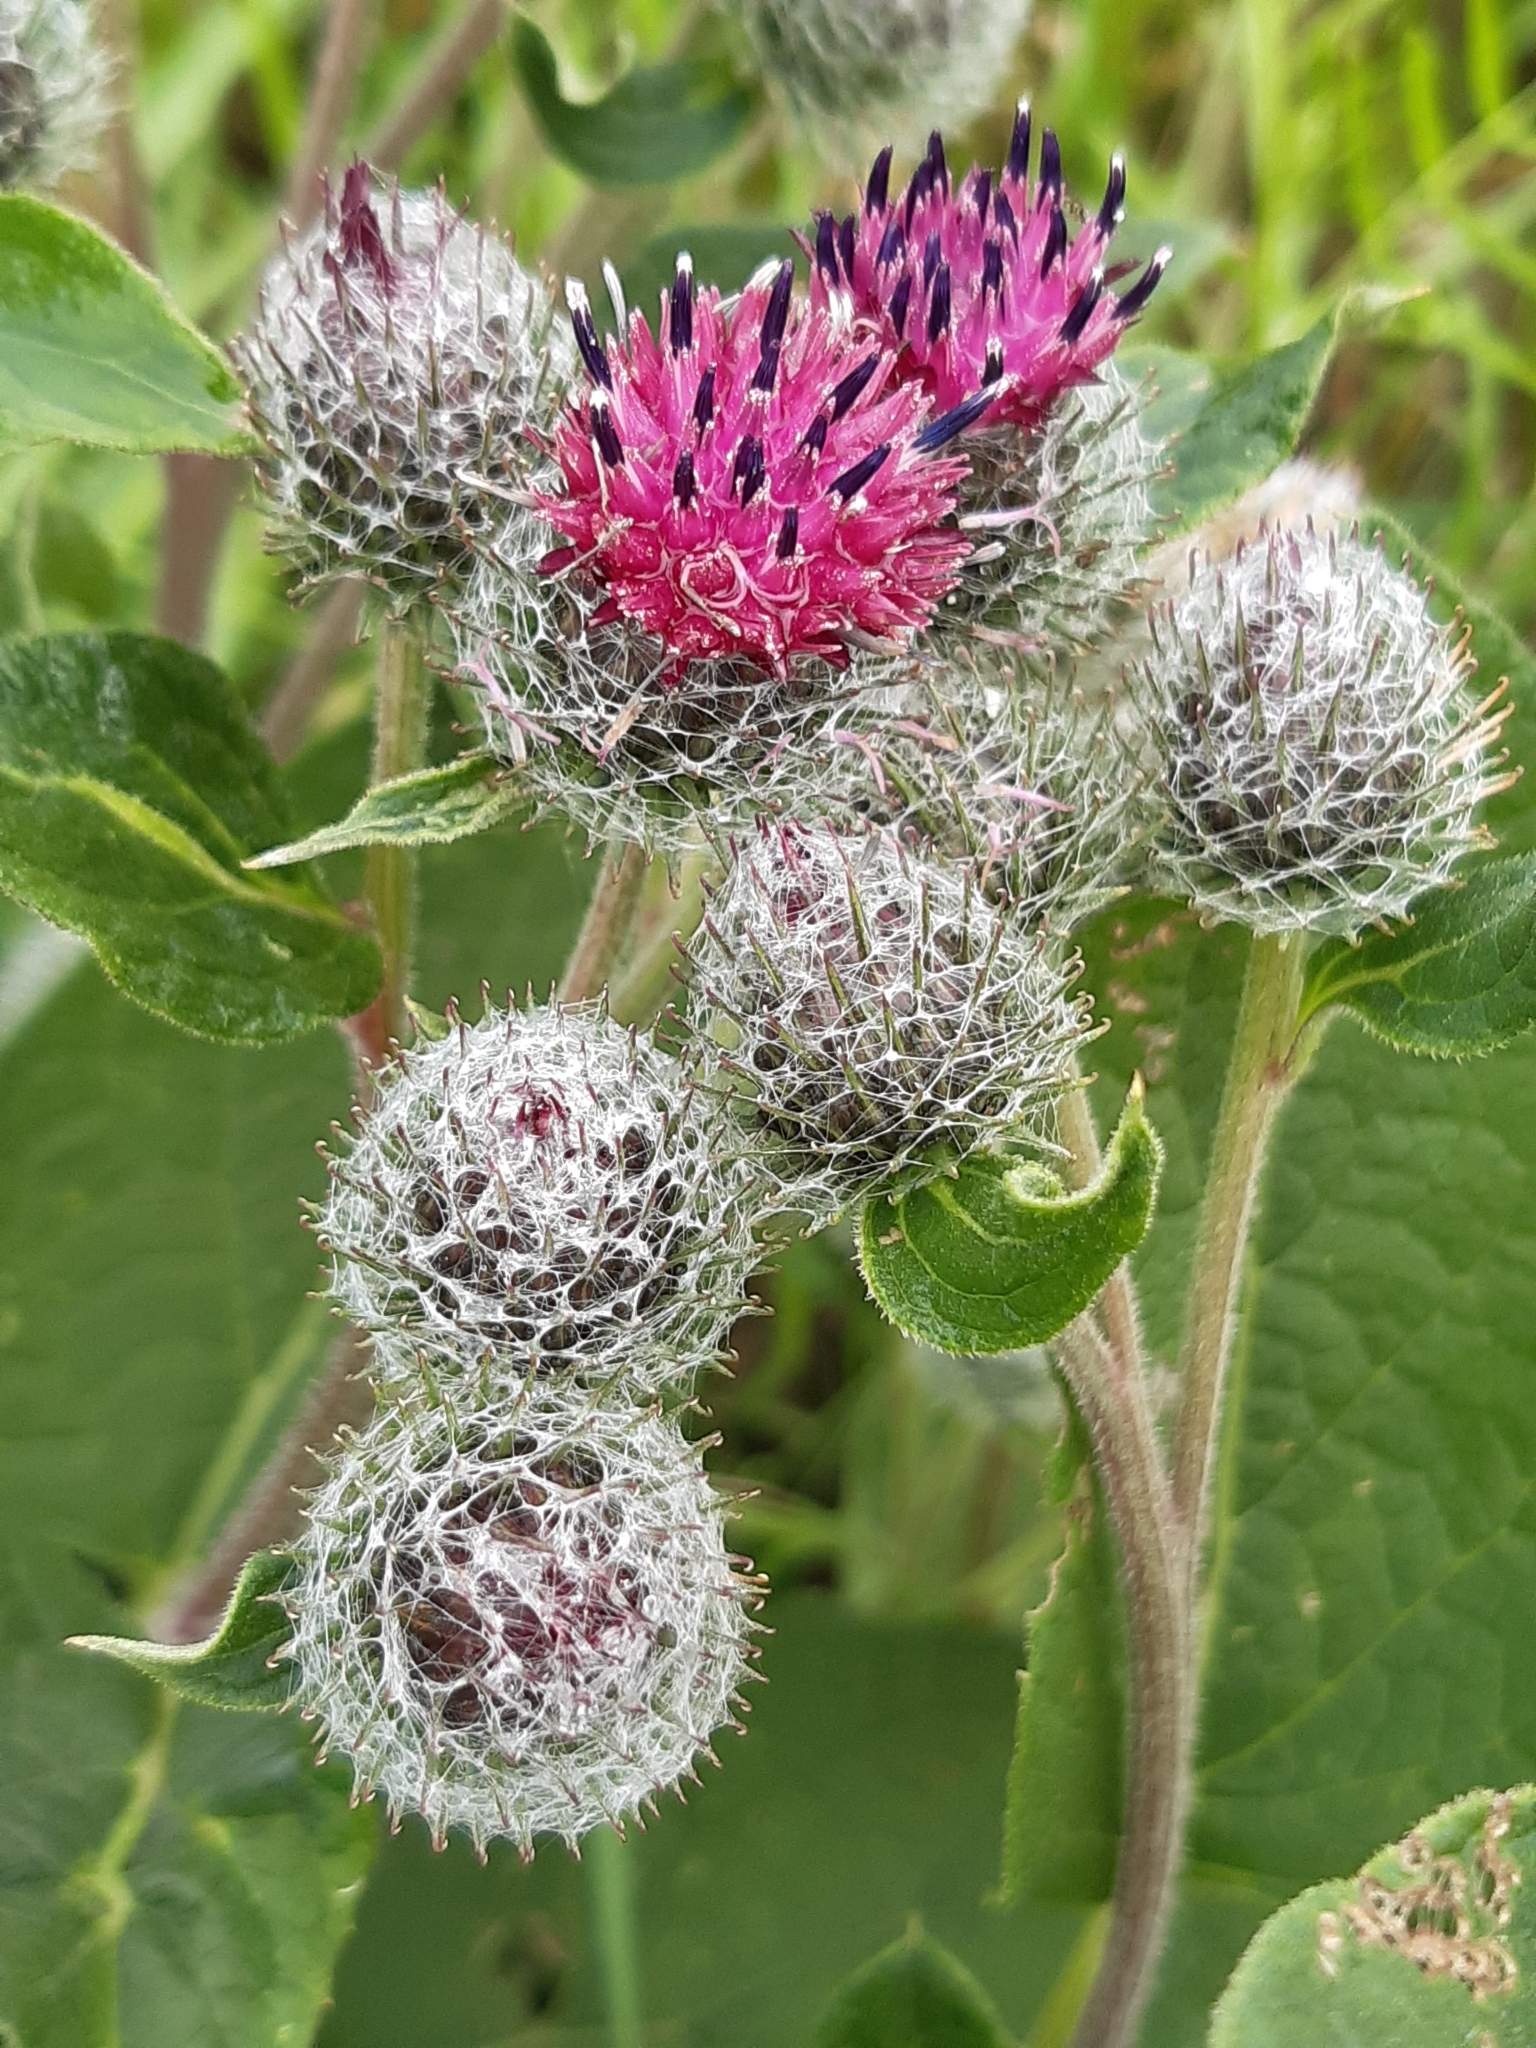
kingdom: Plantae
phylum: Tracheophyta
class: Magnoliopsida
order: Asterales
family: Asteraceae
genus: Arctium
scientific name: Arctium tomentosum
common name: Woolly burdock
